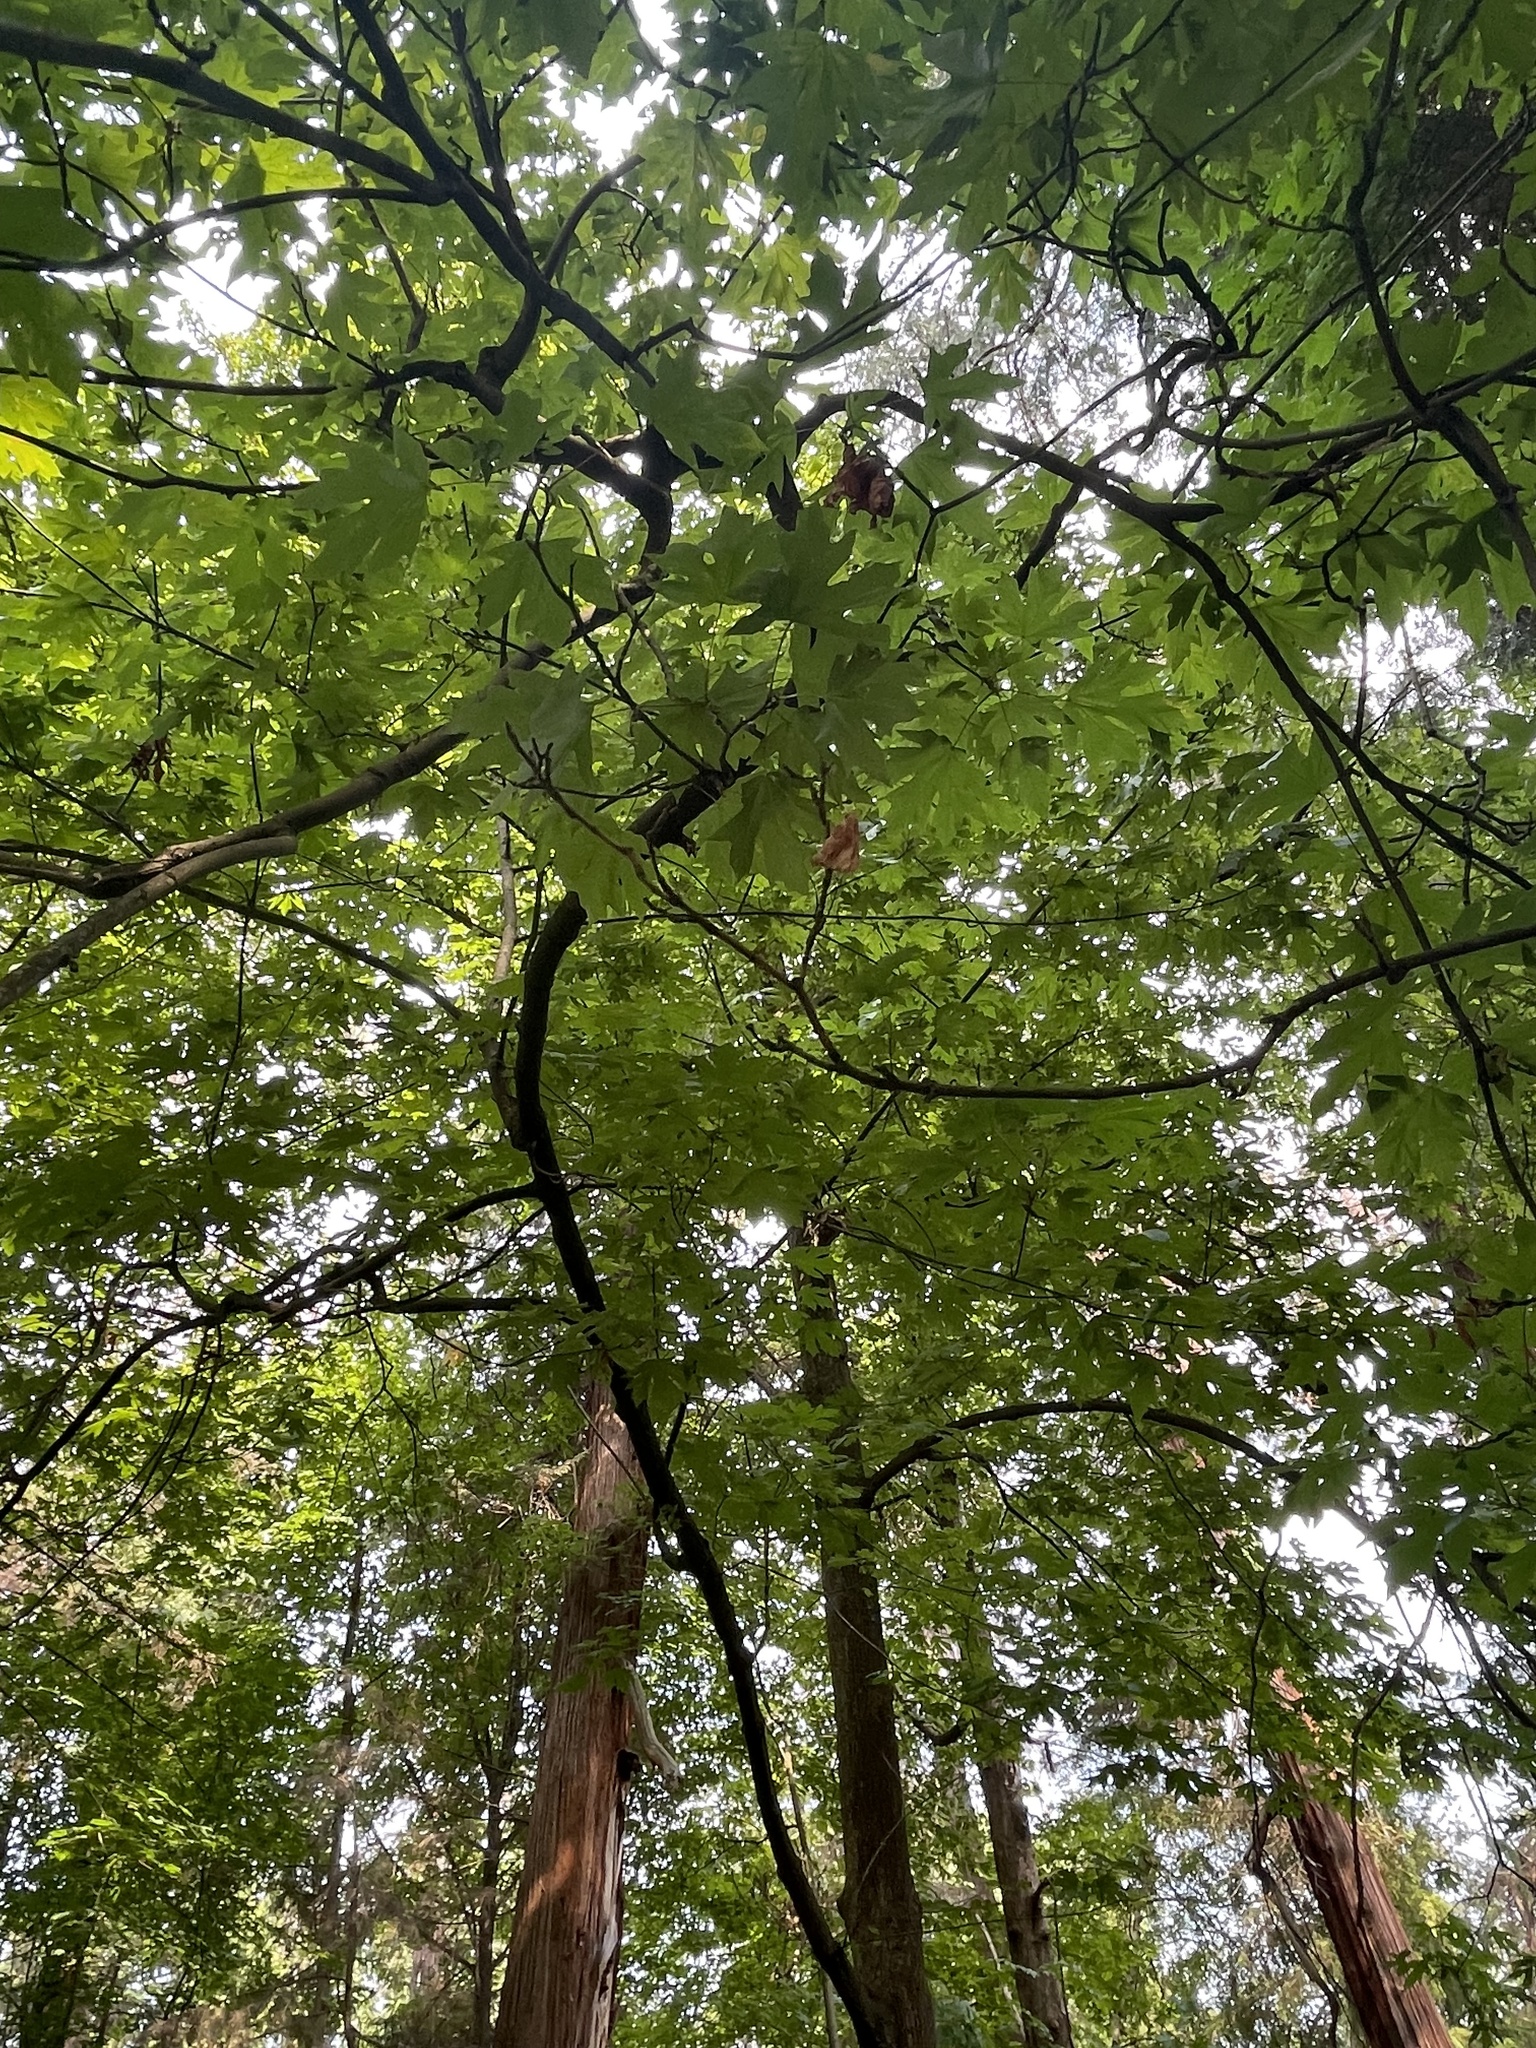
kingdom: Plantae
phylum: Tracheophyta
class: Magnoliopsida
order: Sapindales
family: Sapindaceae
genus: Acer
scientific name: Acer macrophyllum
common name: Oregon maple
